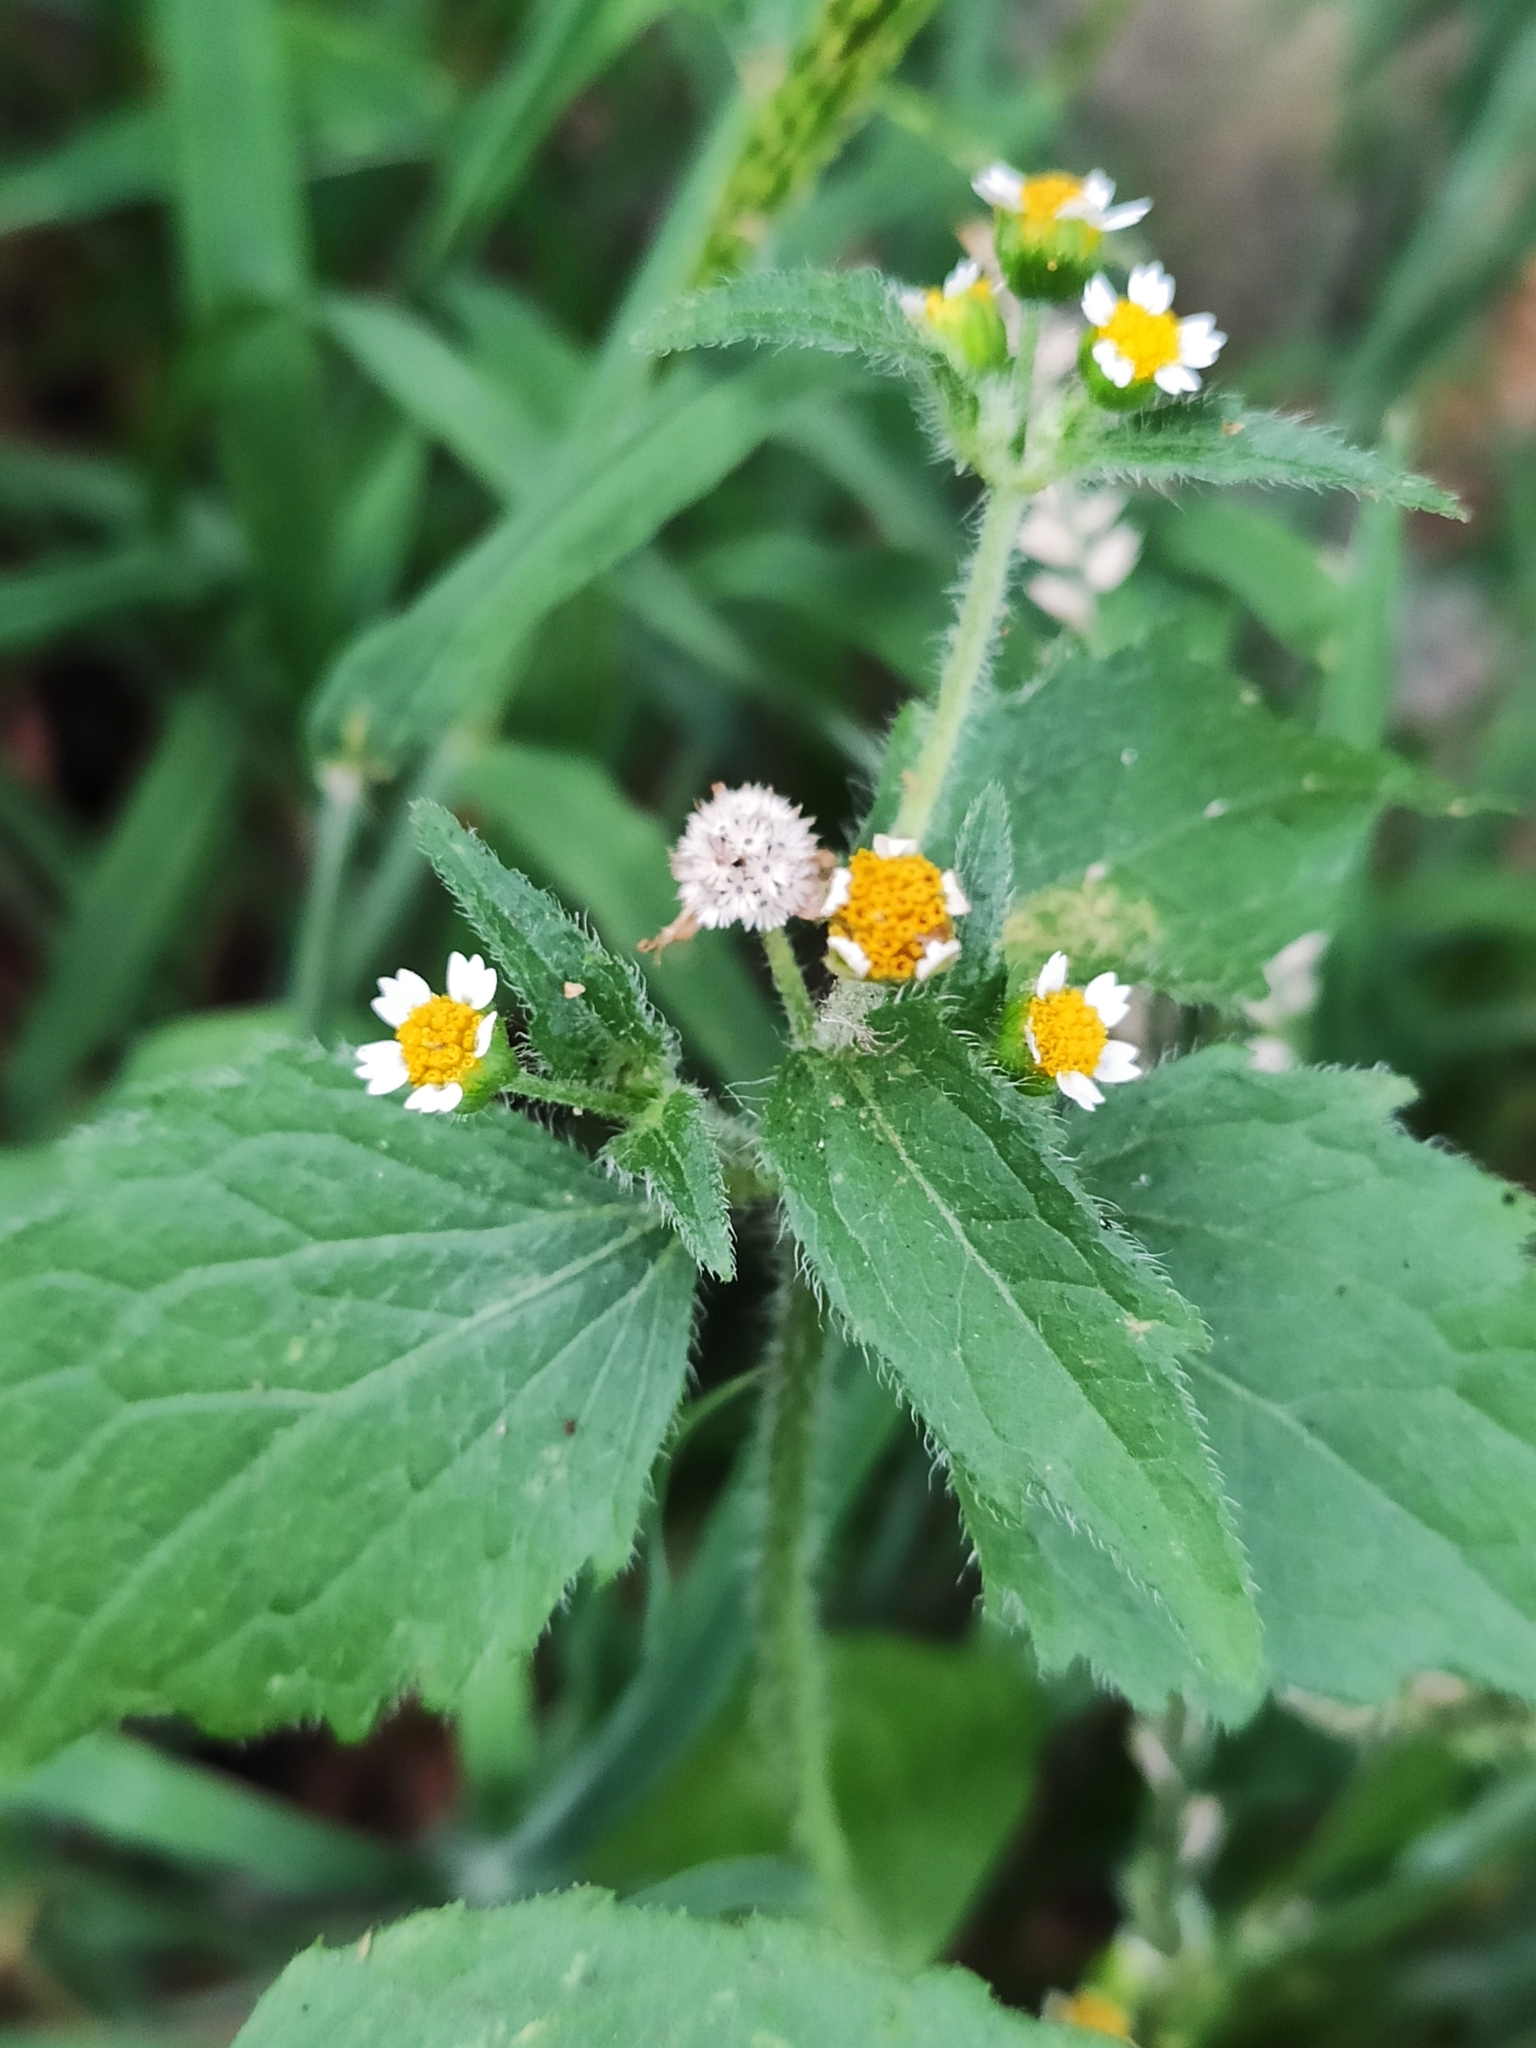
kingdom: Plantae
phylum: Tracheophyta
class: Magnoliopsida
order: Asterales
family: Asteraceae
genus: Galinsoga
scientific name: Galinsoga quadriradiata
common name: Shaggy soldier
